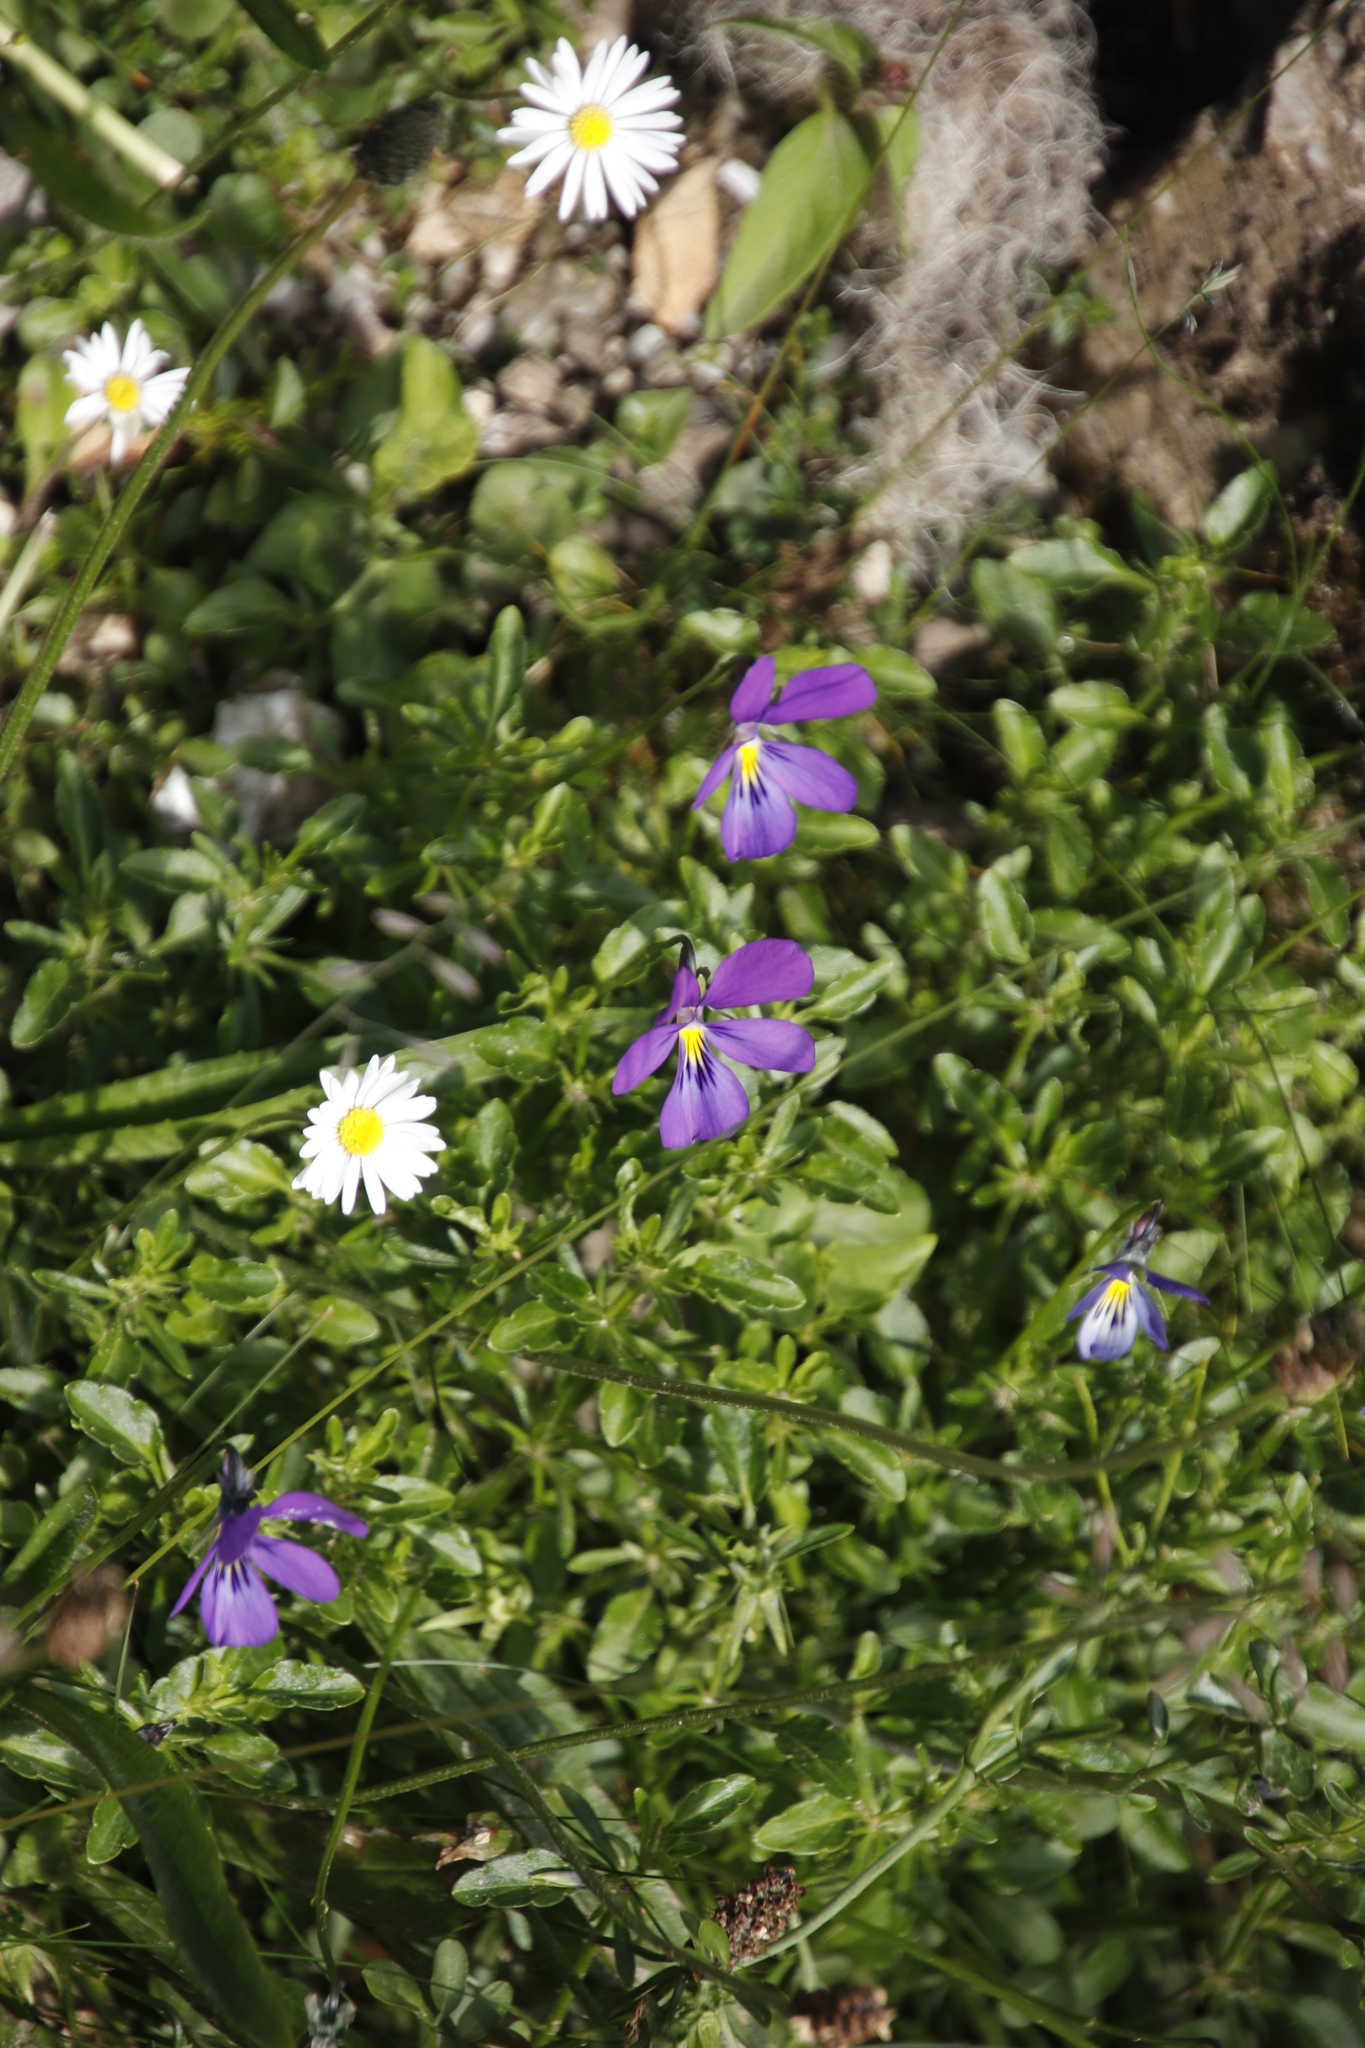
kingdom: Plantae
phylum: Tracheophyta
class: Magnoliopsida
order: Asterales
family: Asteraceae
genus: Bellis
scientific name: Bellis perennis
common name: Lawndaisy
